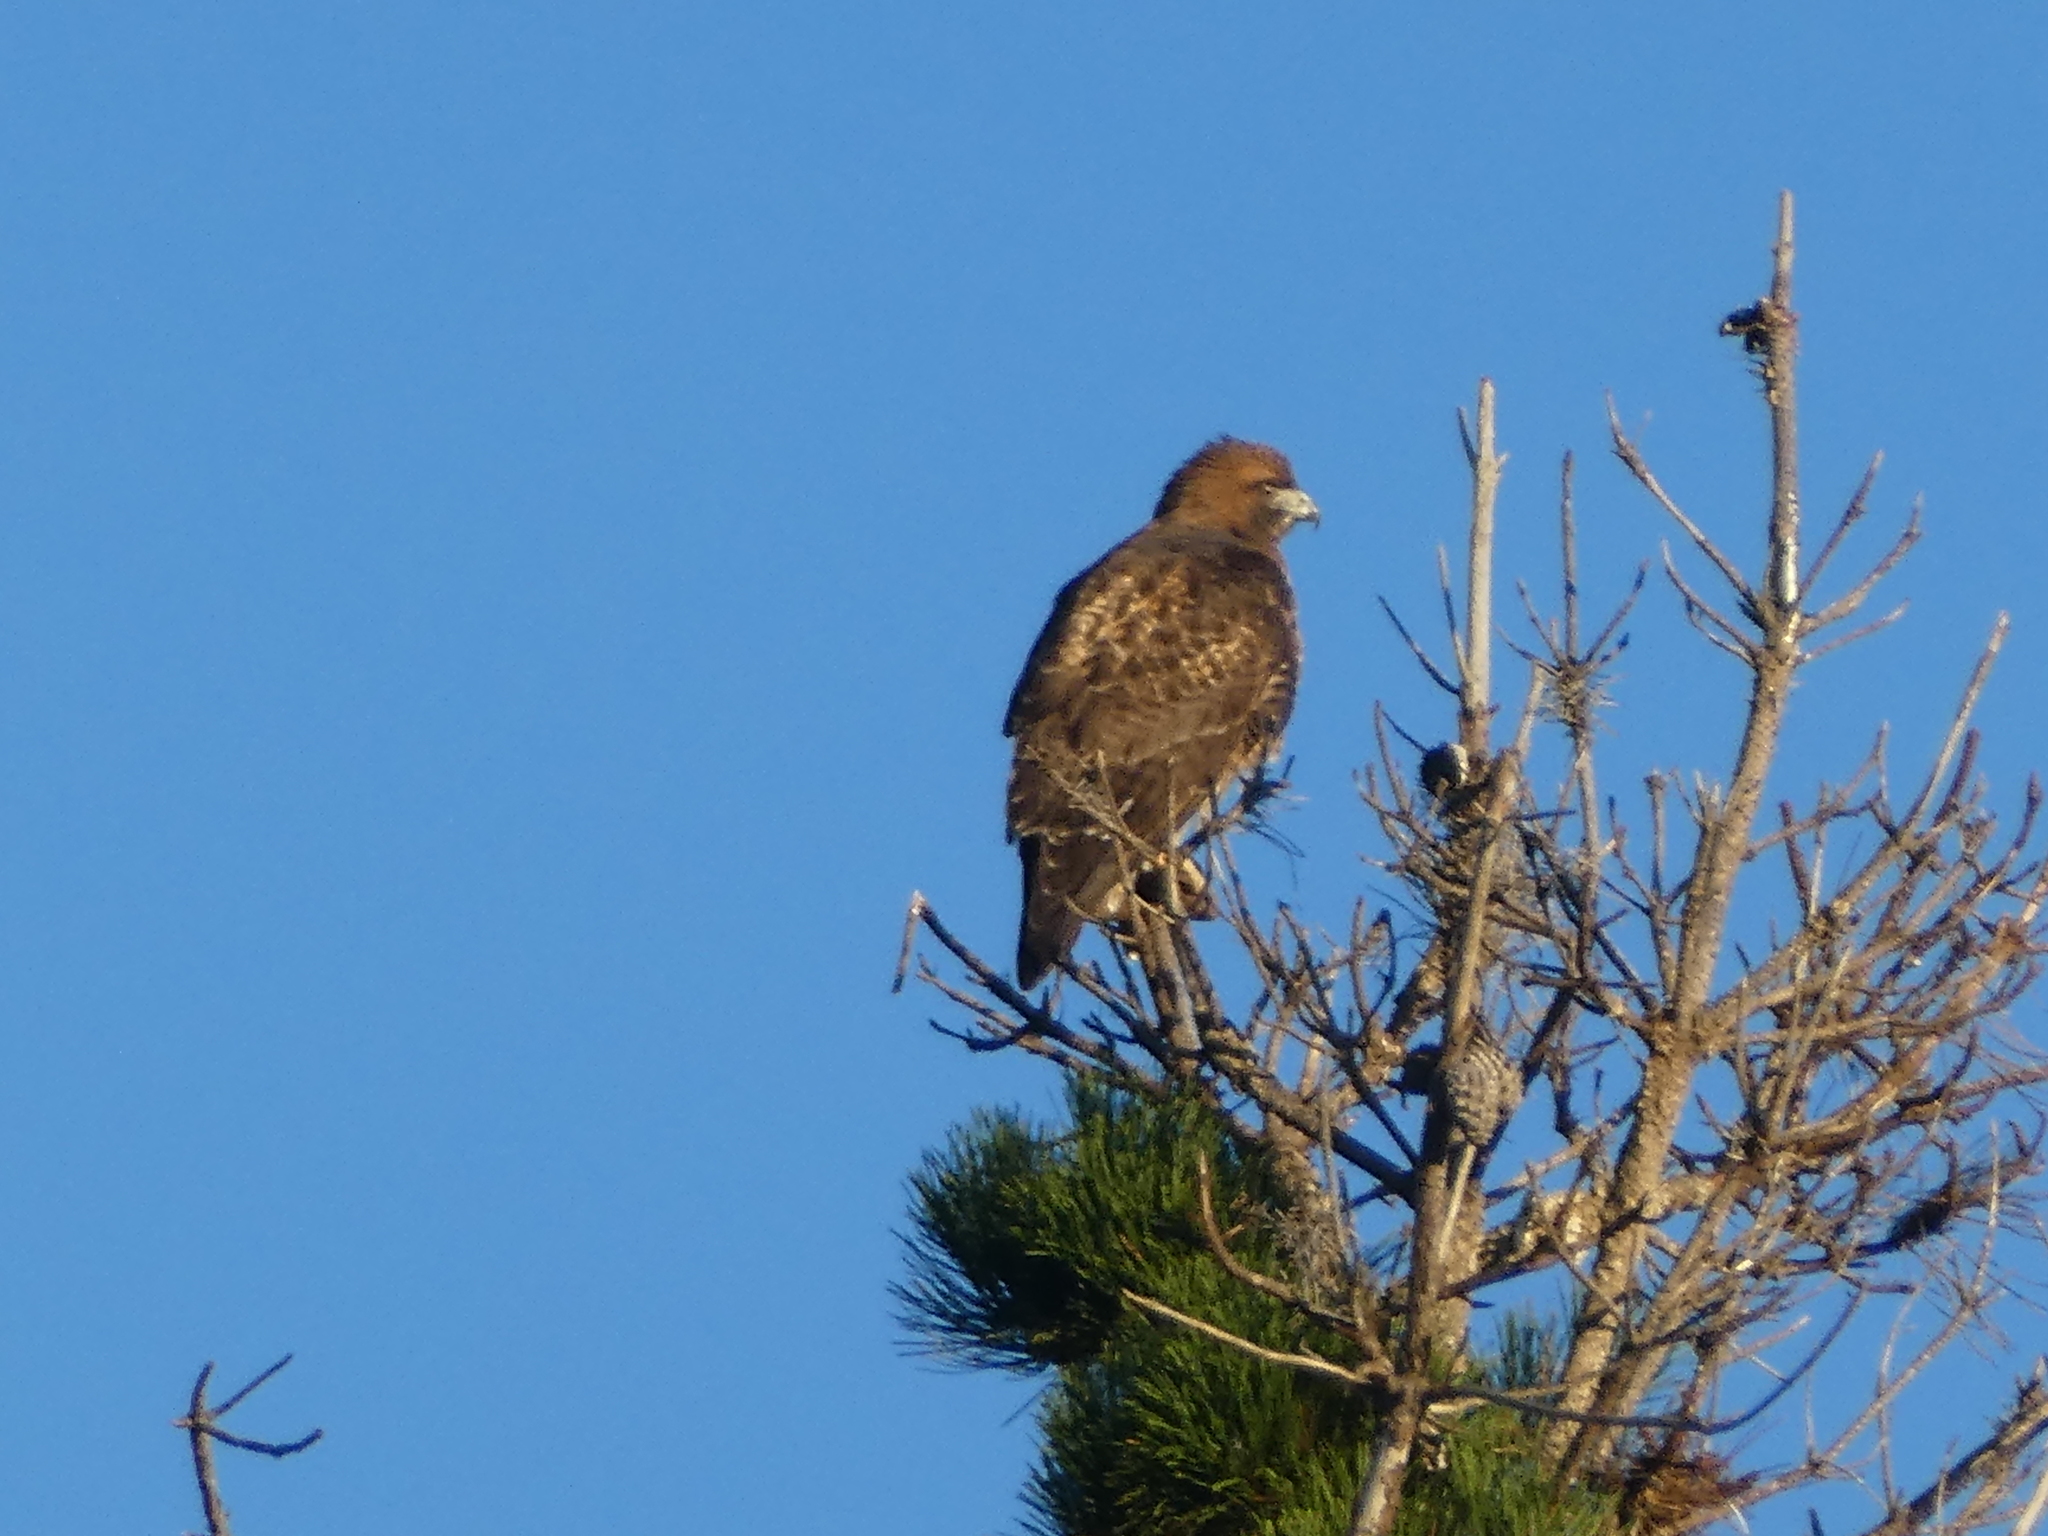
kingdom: Animalia
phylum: Chordata
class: Aves
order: Accipitriformes
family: Accipitridae
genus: Buteo
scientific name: Buteo jamaicensis
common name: Red-tailed hawk
